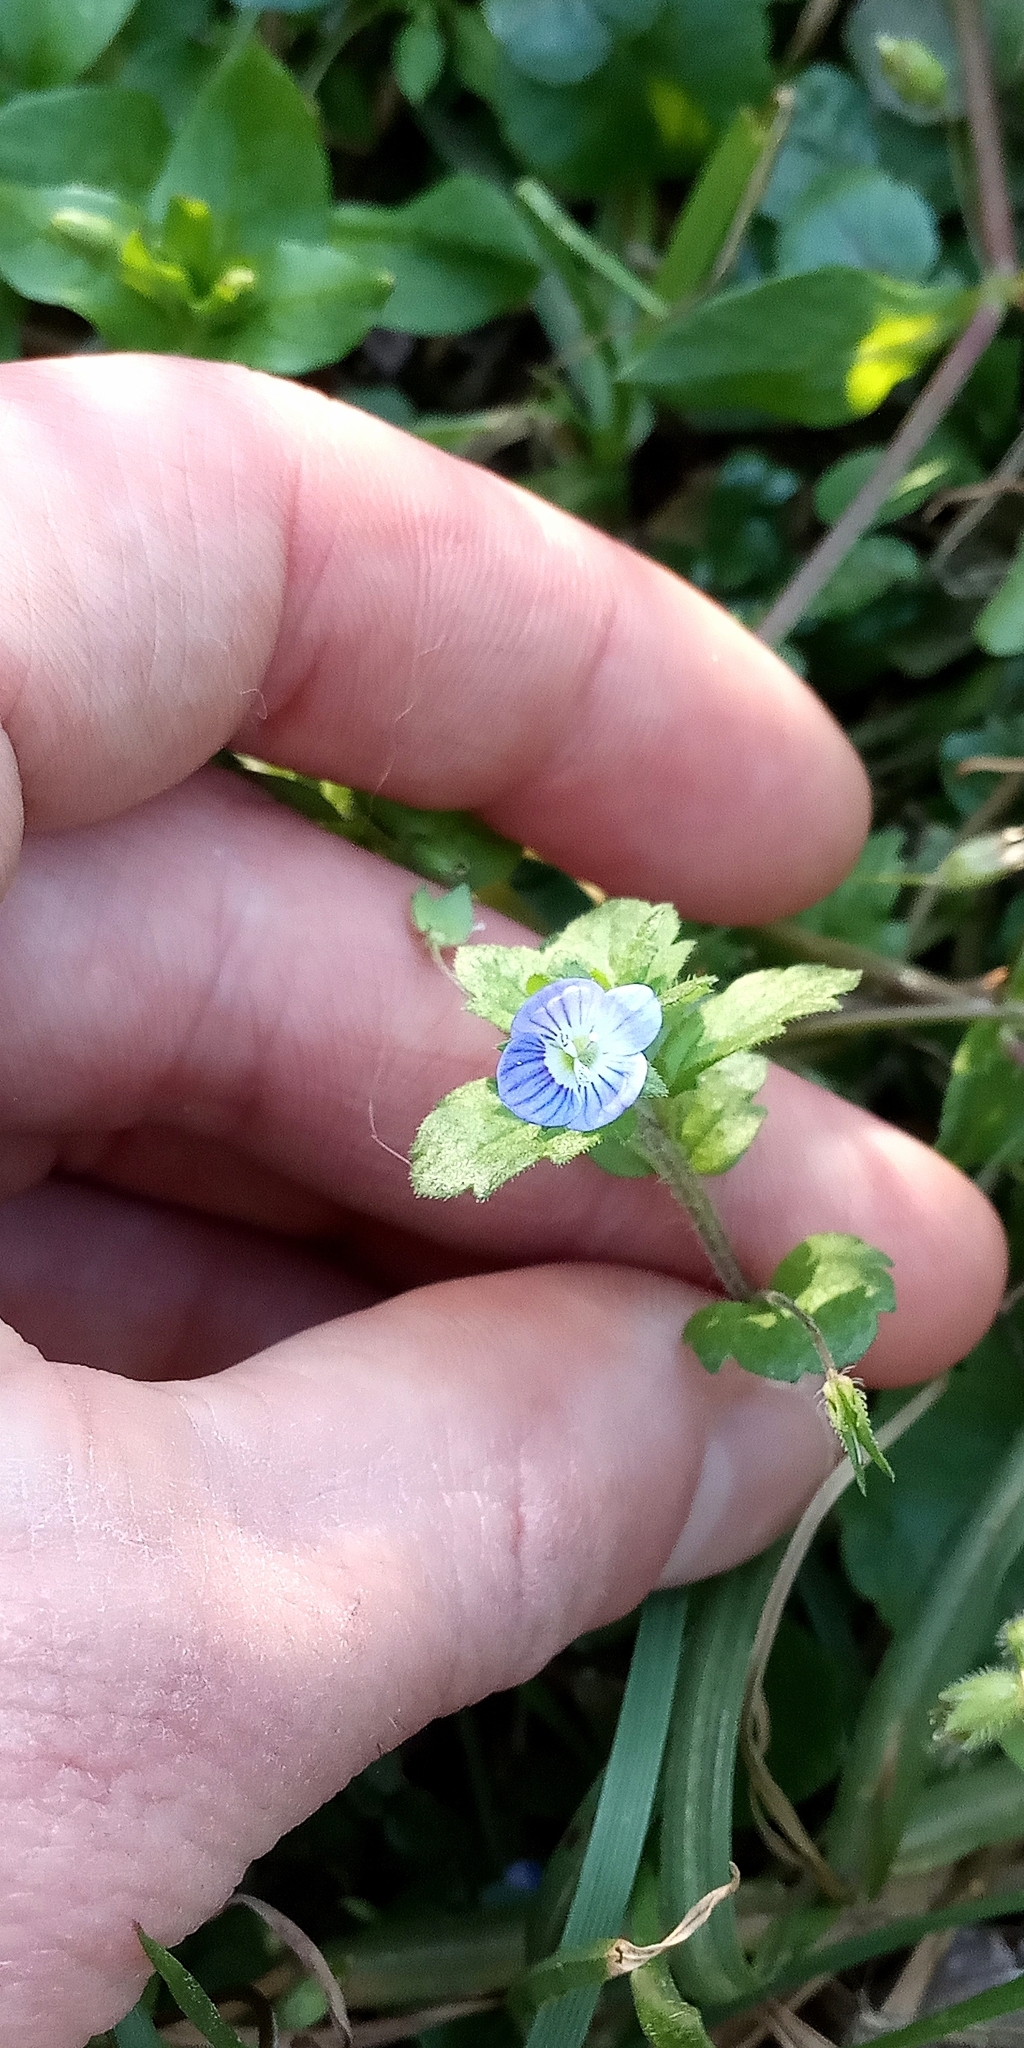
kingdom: Plantae
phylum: Tracheophyta
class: Magnoliopsida
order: Lamiales
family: Plantaginaceae
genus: Veronica
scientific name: Veronica persica
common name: Common field-speedwell
